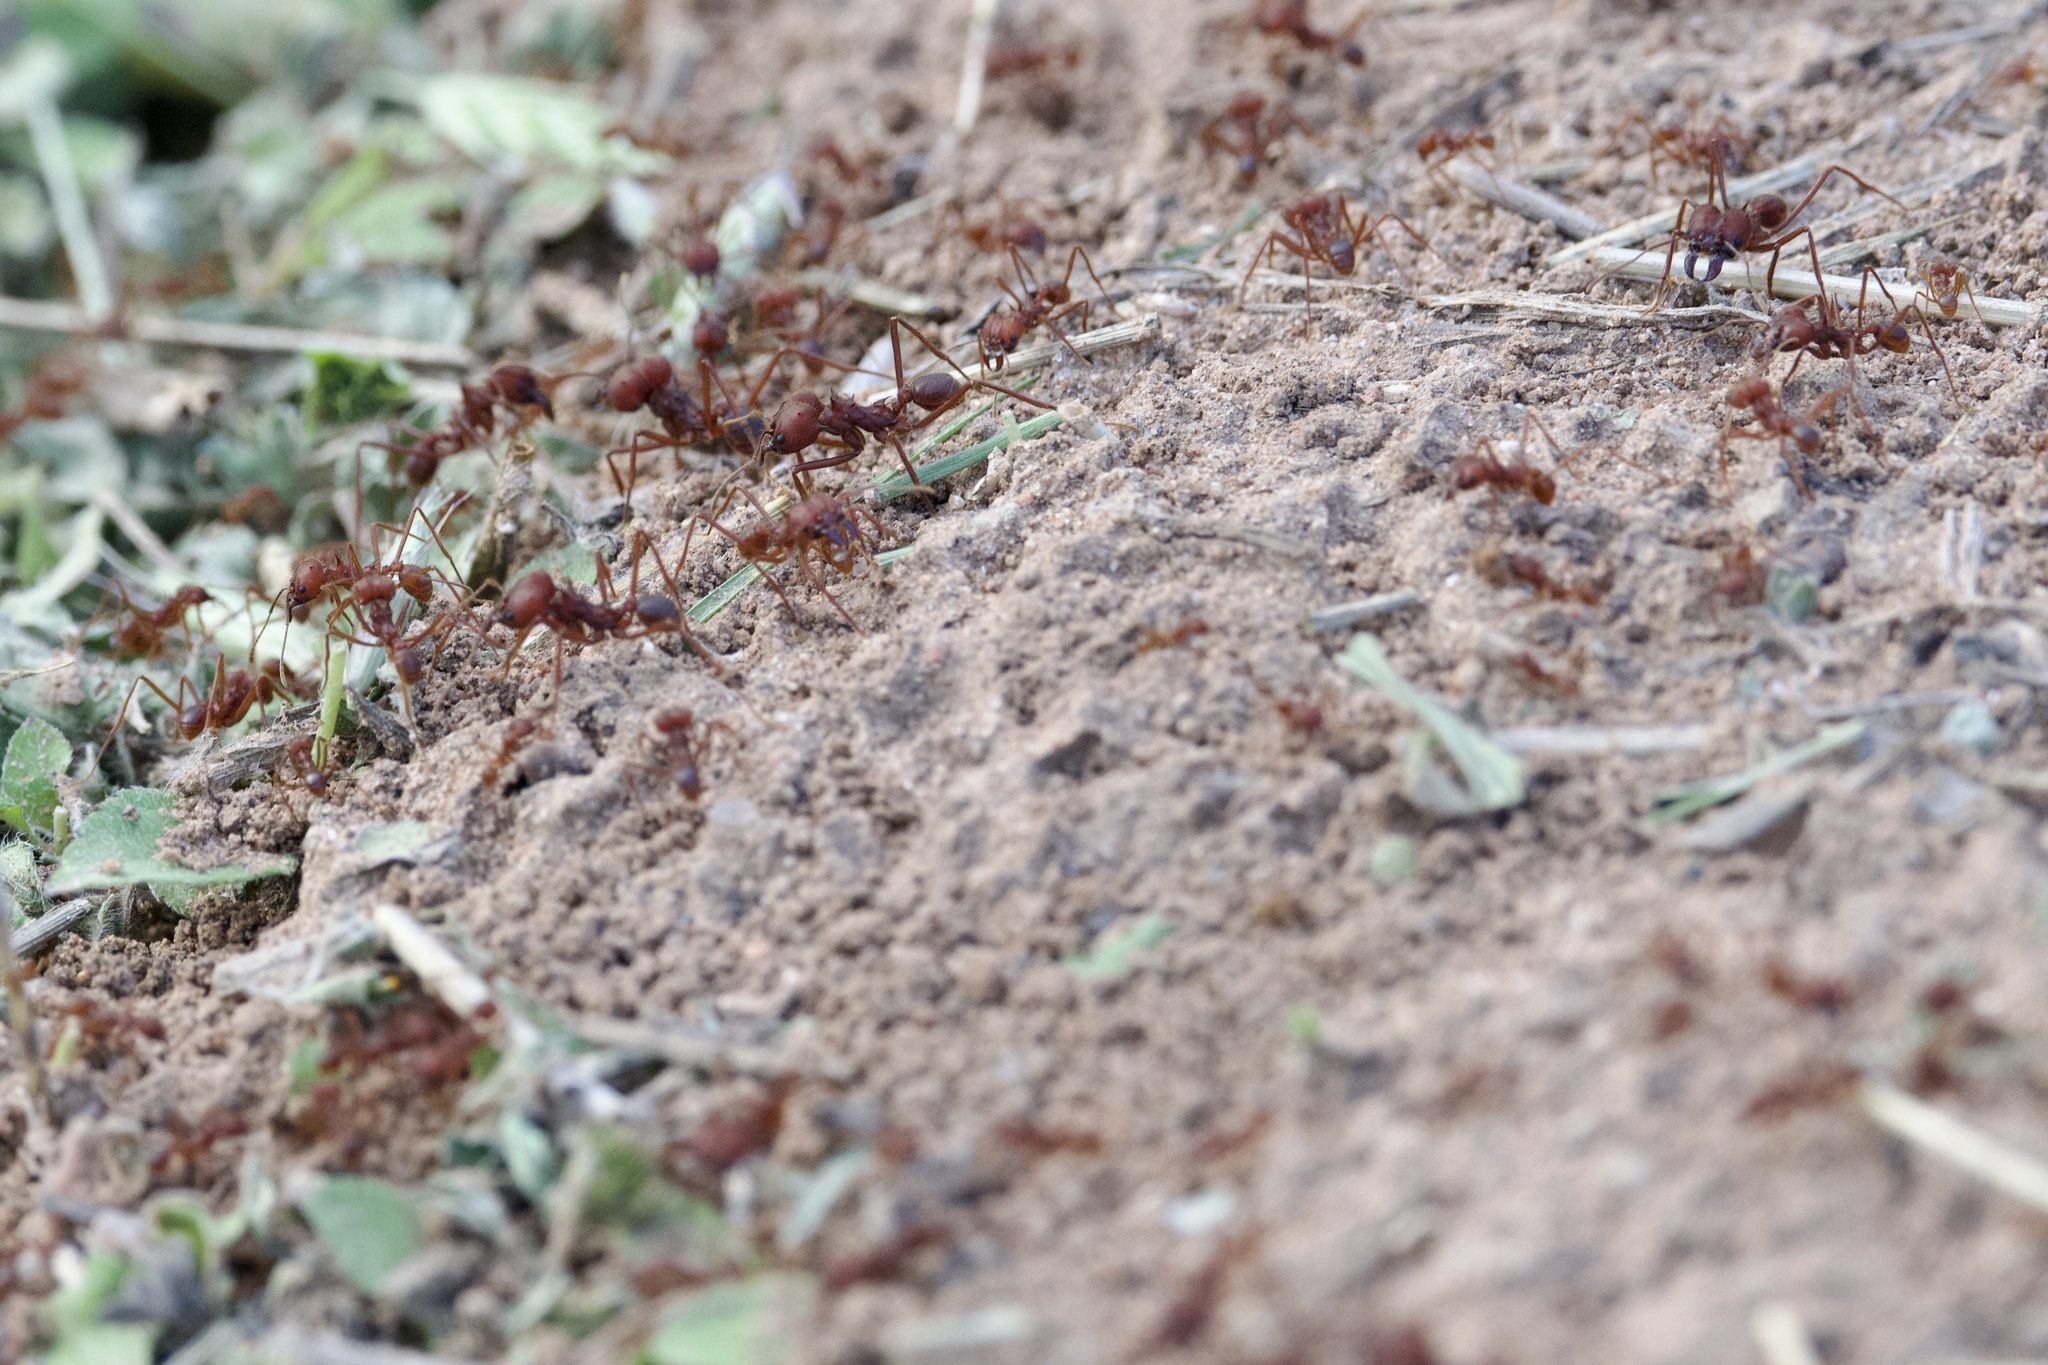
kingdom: Animalia
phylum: Arthropoda
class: Insecta
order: Hymenoptera
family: Formicidae
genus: Atta
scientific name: Atta texana
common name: Texas leafcutting ant
